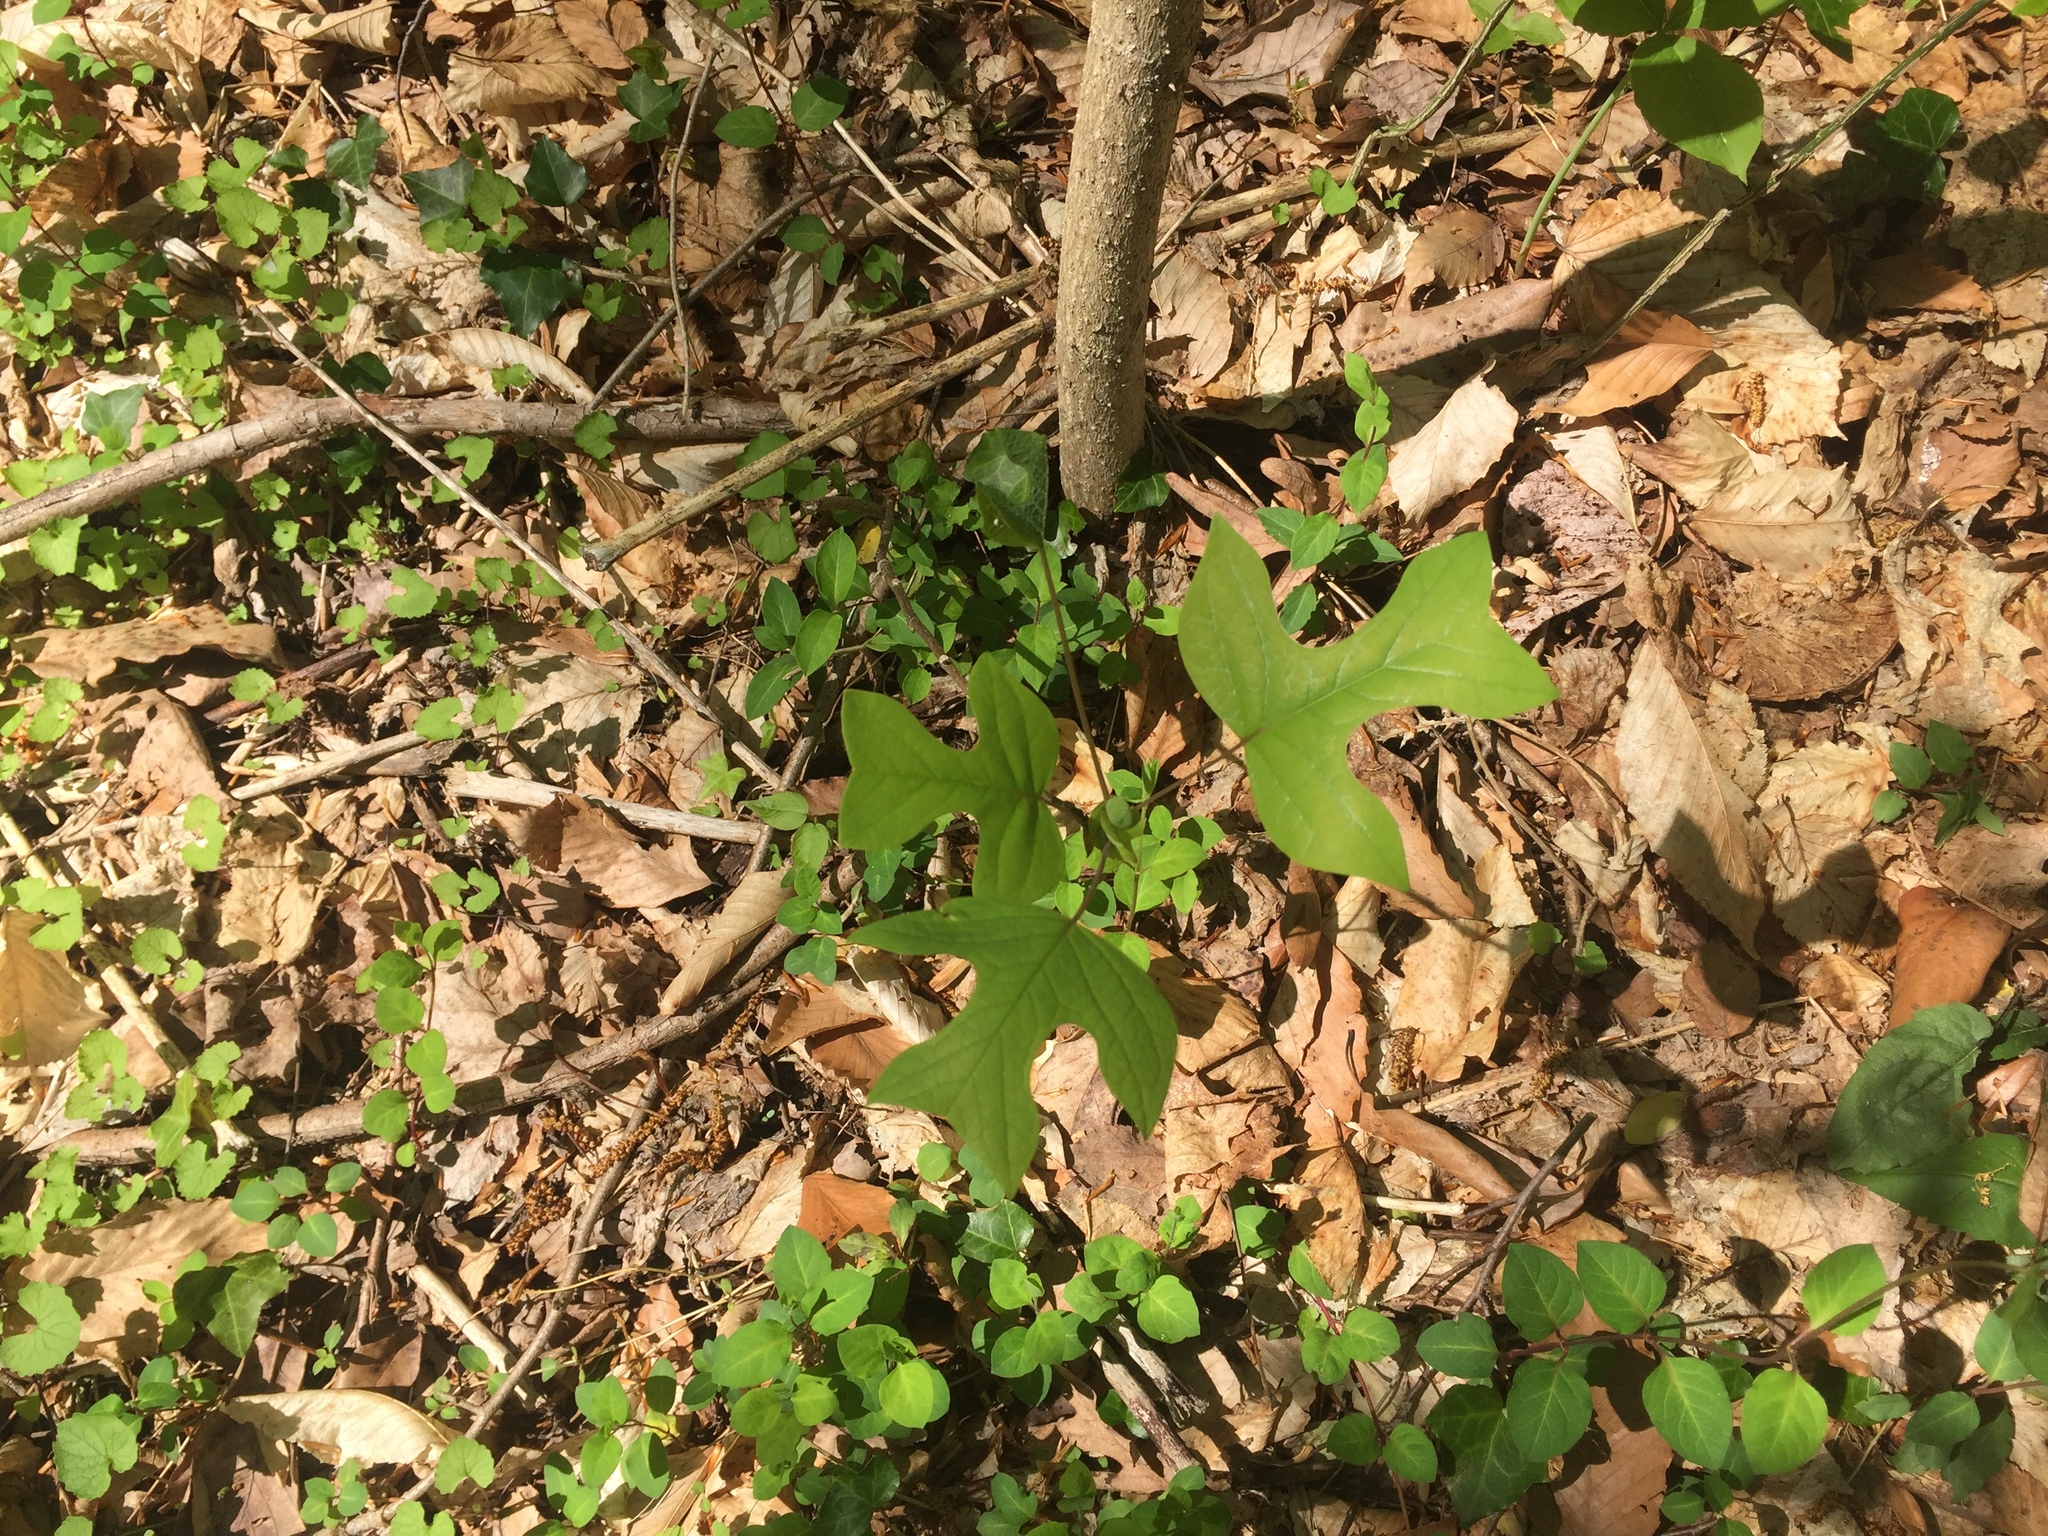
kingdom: Plantae
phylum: Tracheophyta
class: Magnoliopsida
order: Magnoliales
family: Magnoliaceae
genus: Liriodendron
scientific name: Liriodendron tulipifera
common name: Tulip tree
